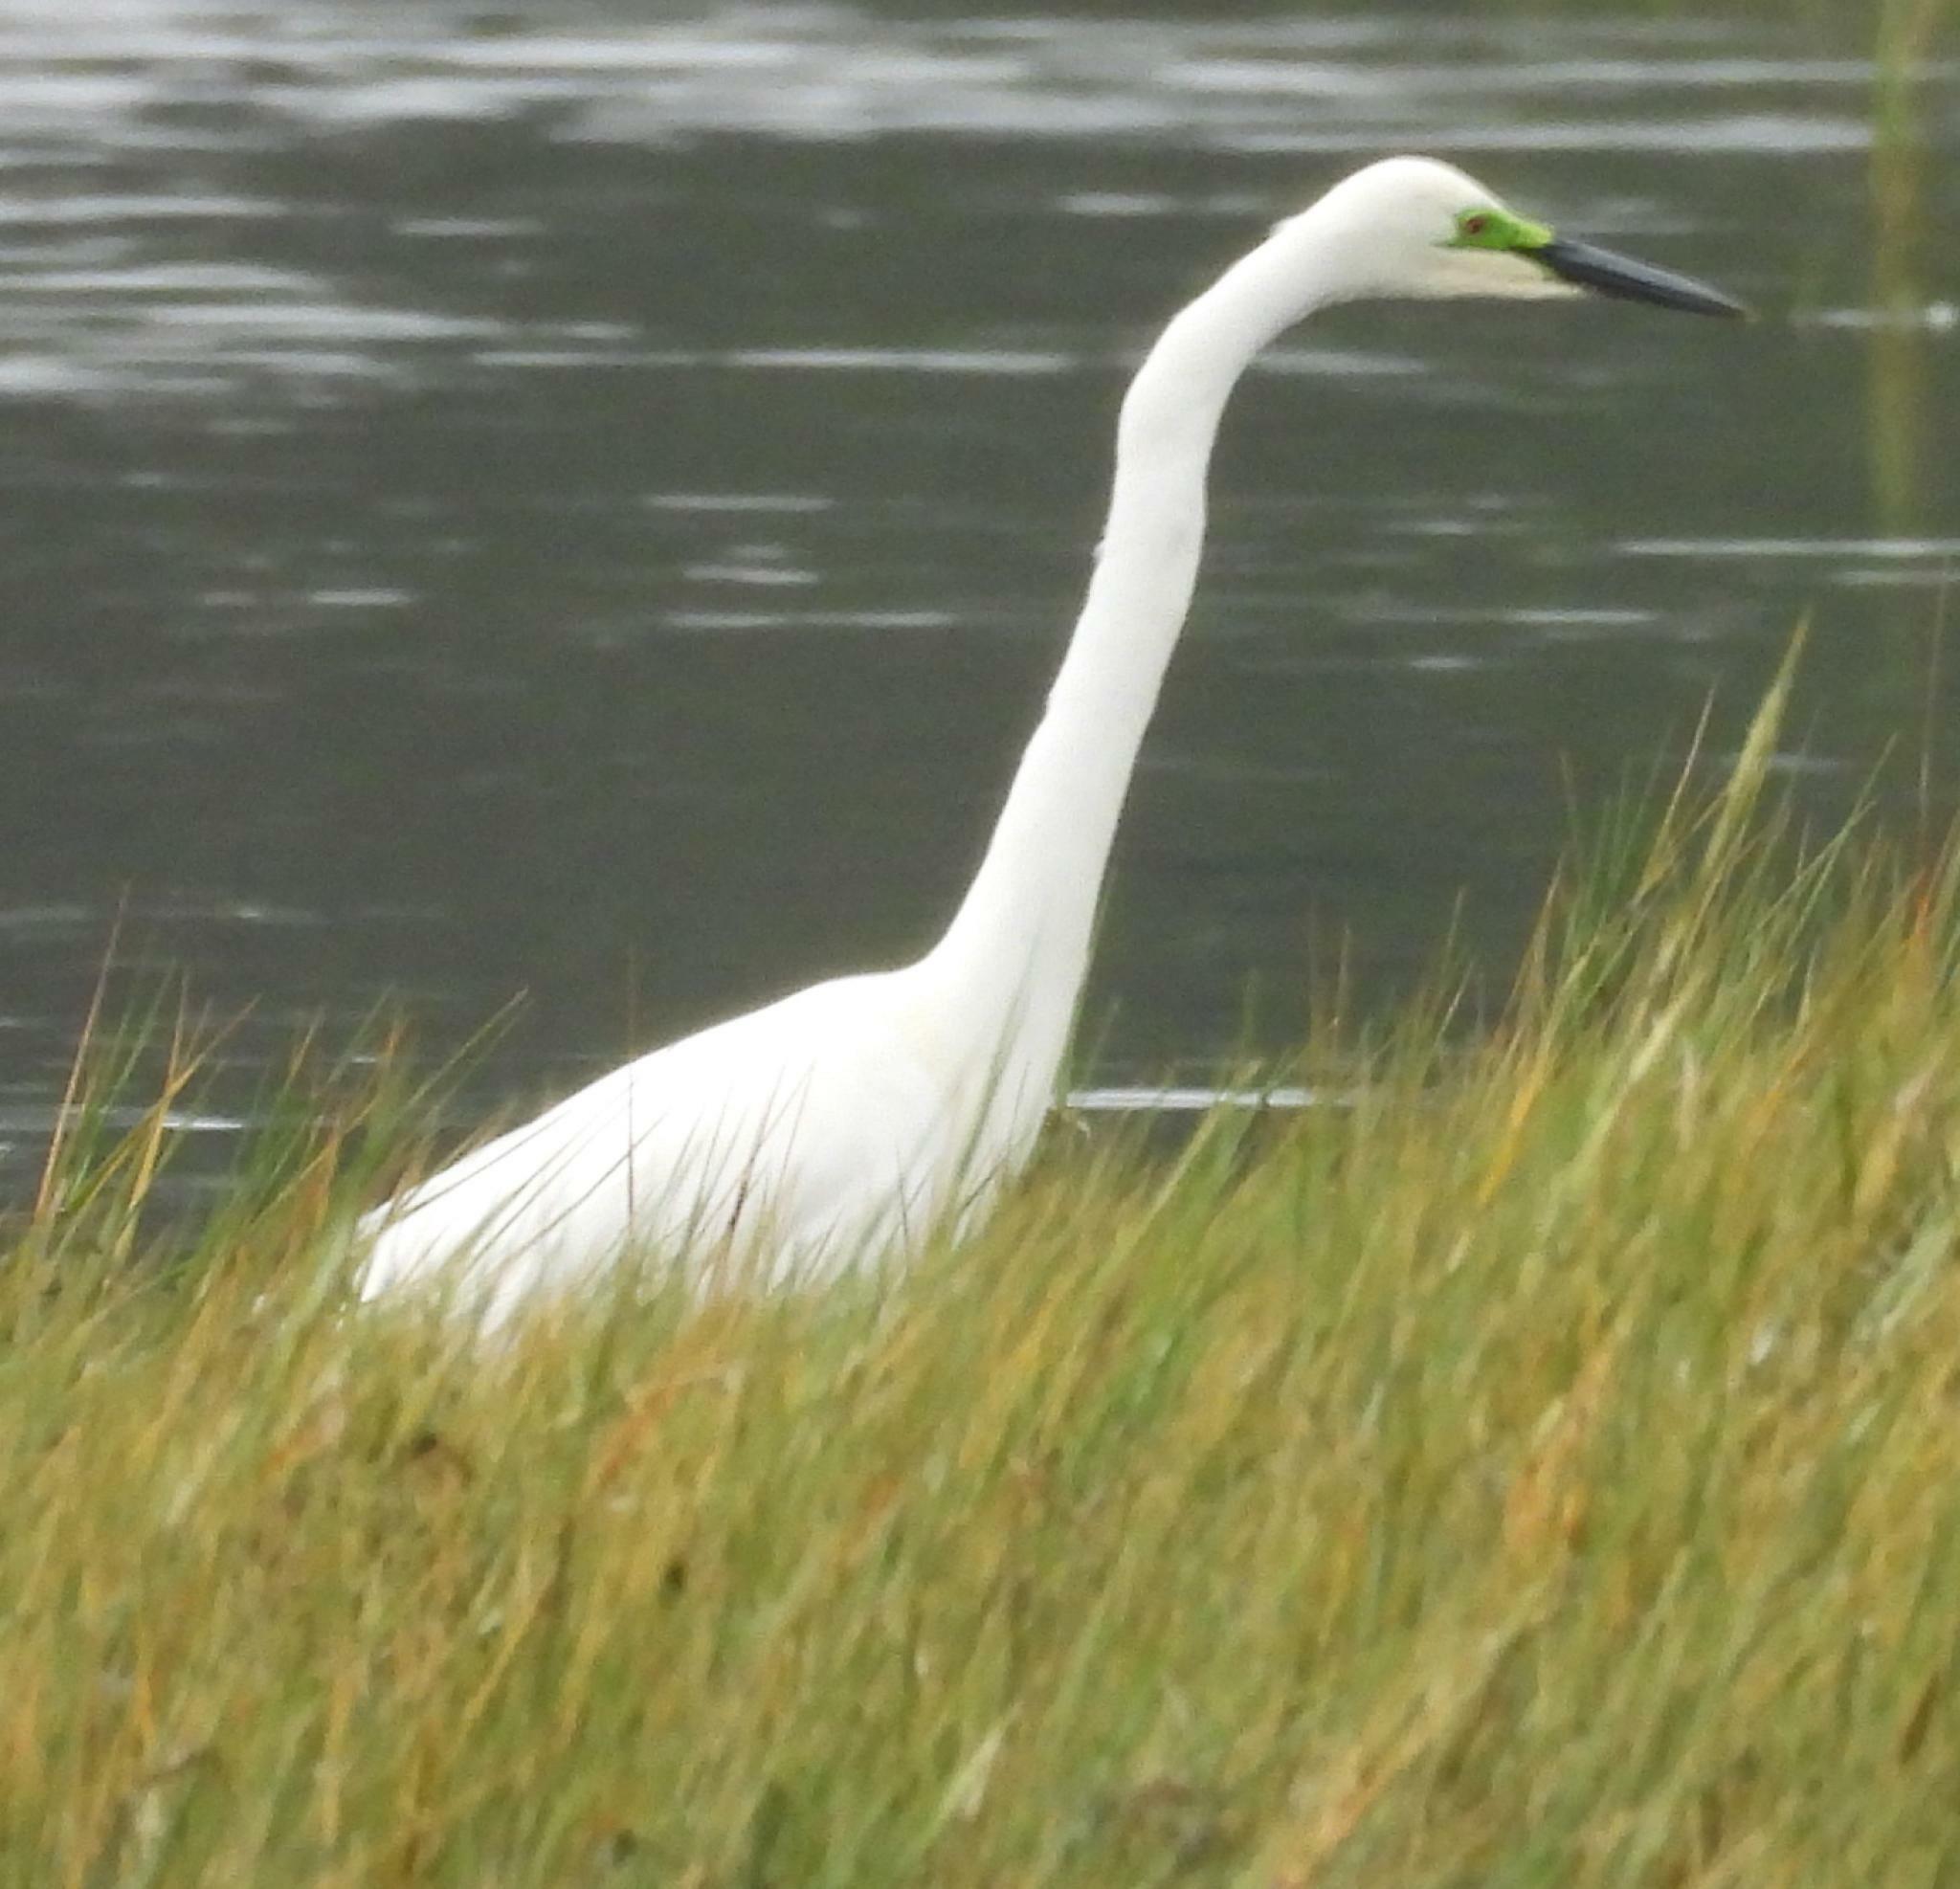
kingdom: Animalia
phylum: Chordata
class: Aves
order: Pelecaniformes
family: Ardeidae
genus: Ardea
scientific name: Ardea alba
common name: Great egret
